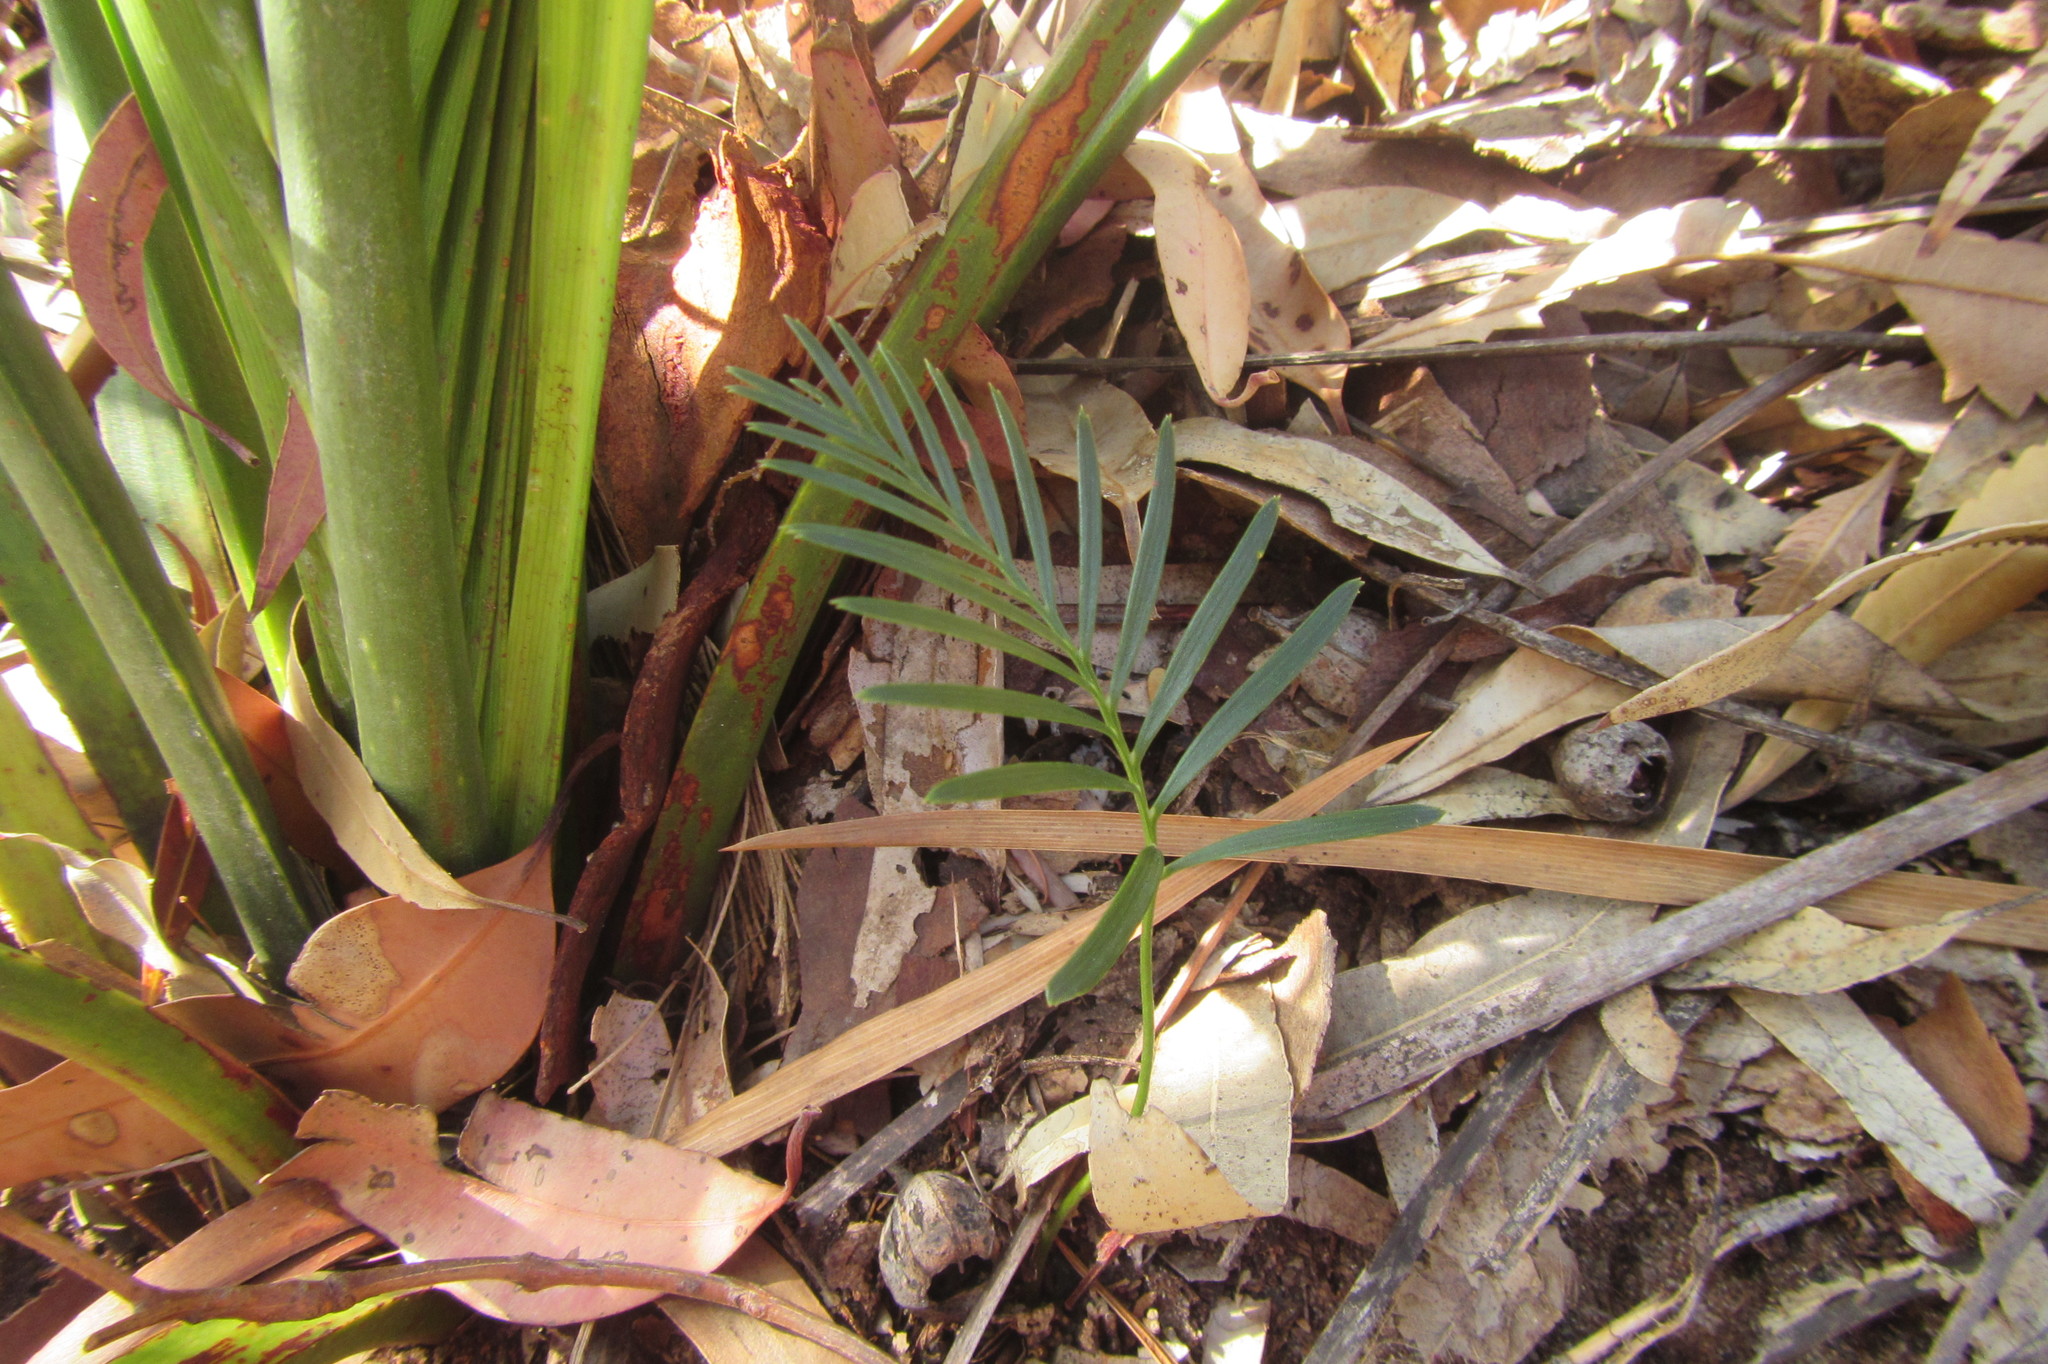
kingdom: Plantae
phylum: Tracheophyta
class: Cycadopsida
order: Cycadales
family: Zamiaceae
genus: Macrozamia
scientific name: Macrozamia communis
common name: Burrawong
